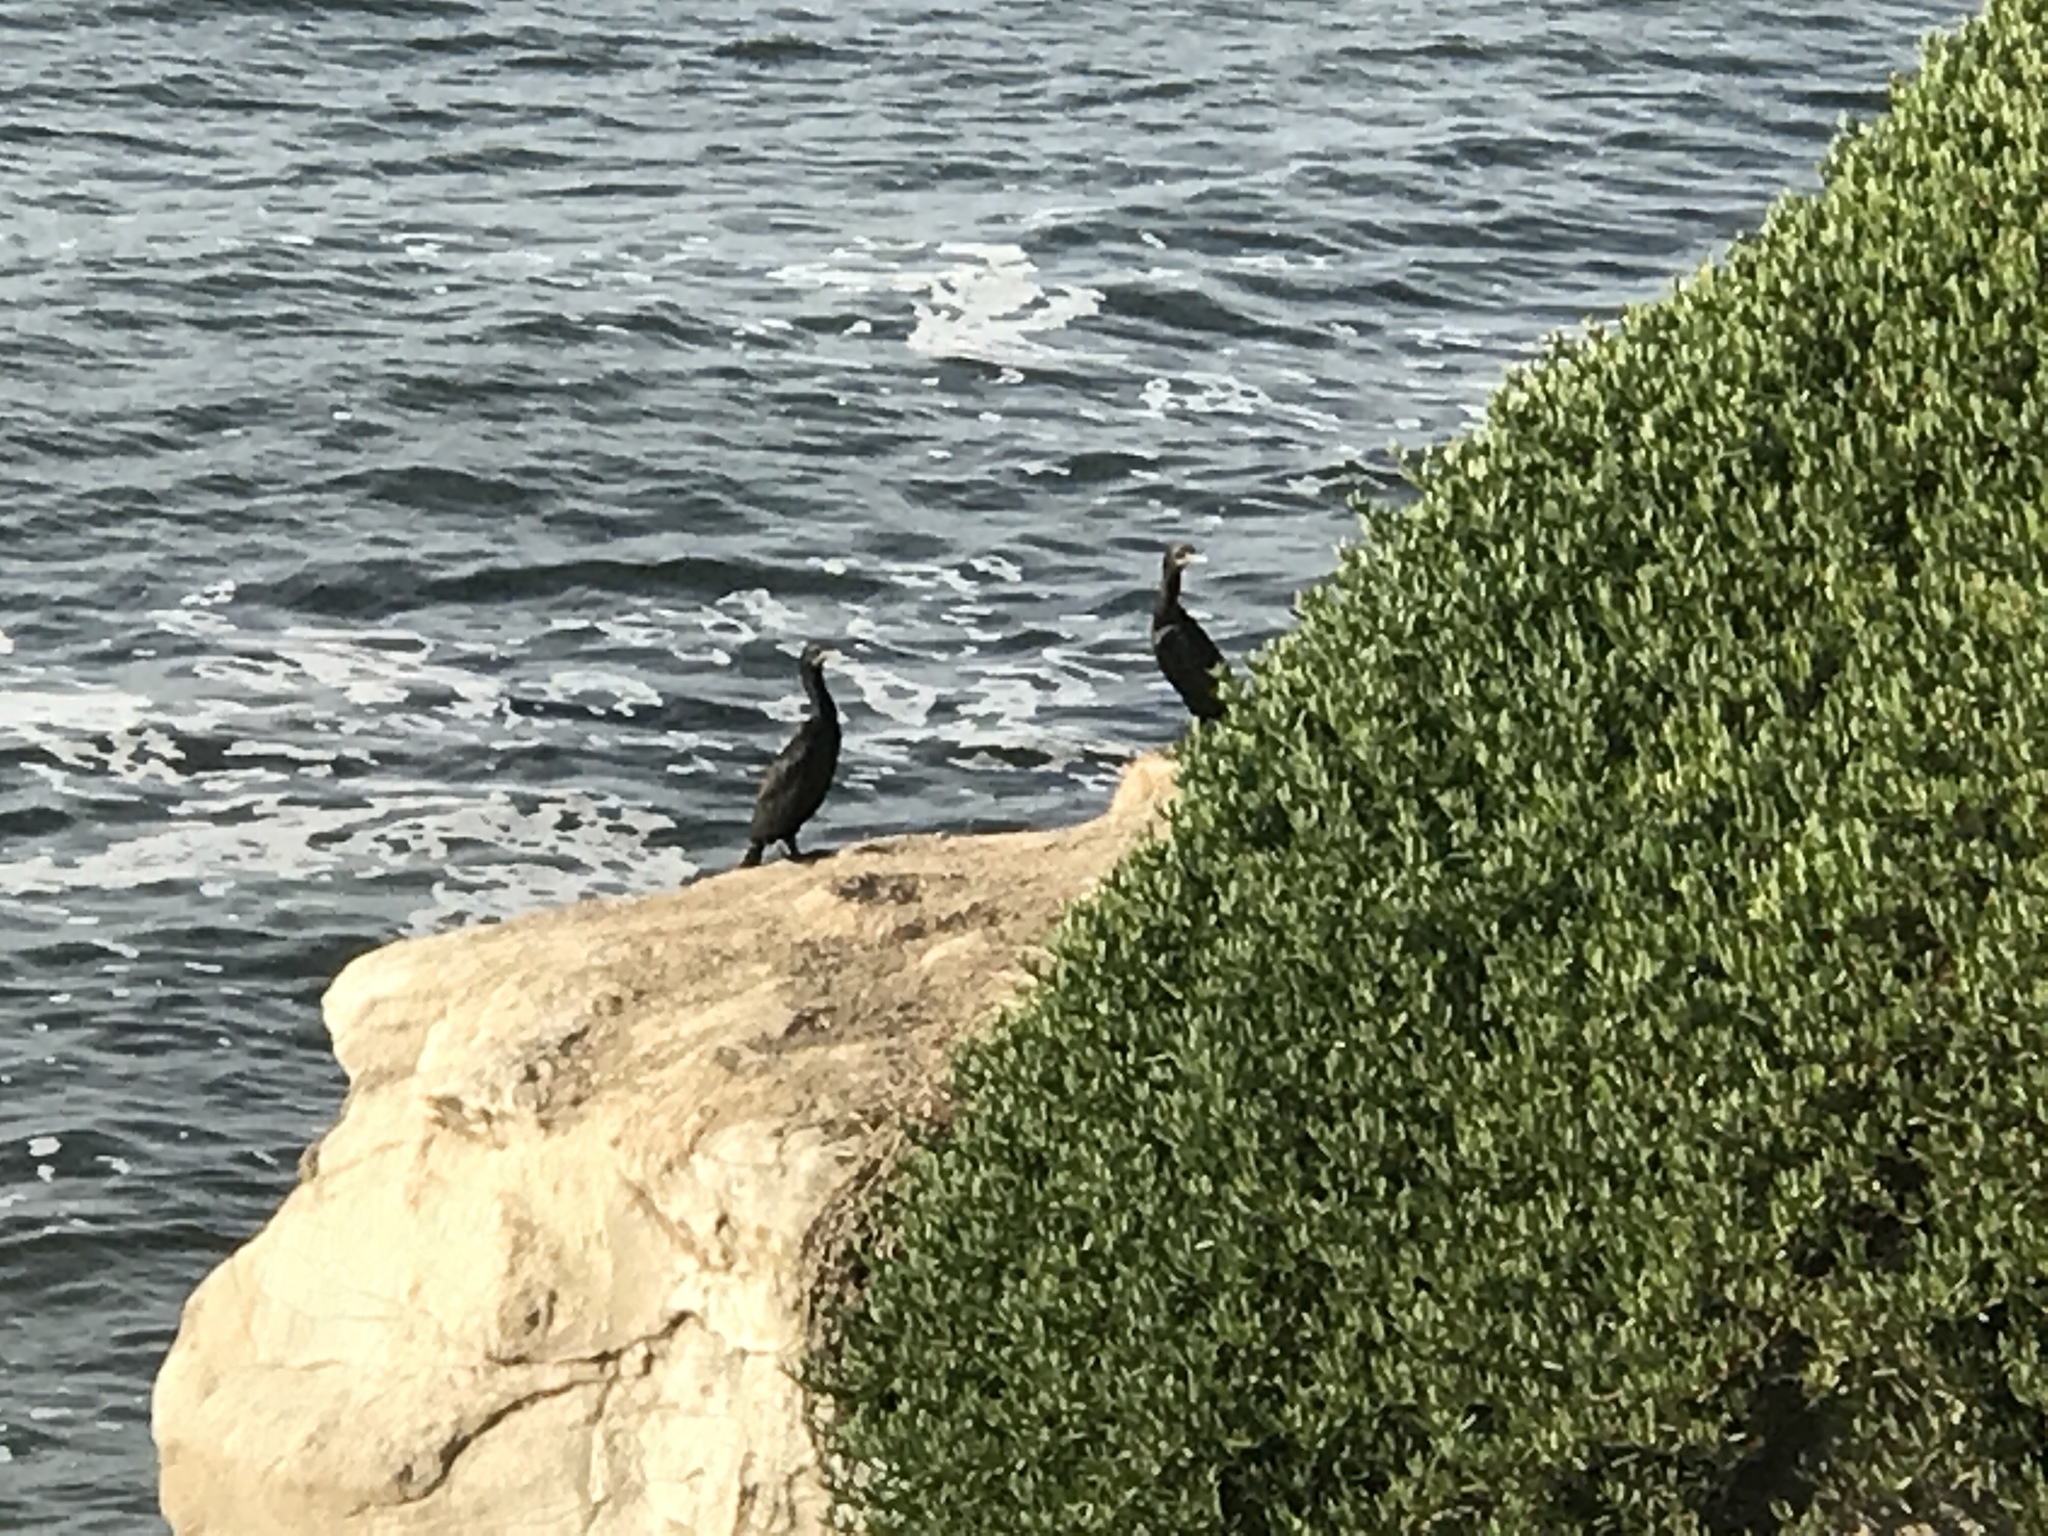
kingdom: Animalia
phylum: Chordata
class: Aves
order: Suliformes
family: Phalacrocoracidae
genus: Urile
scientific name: Urile penicillatus
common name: Brandt's cormorant
